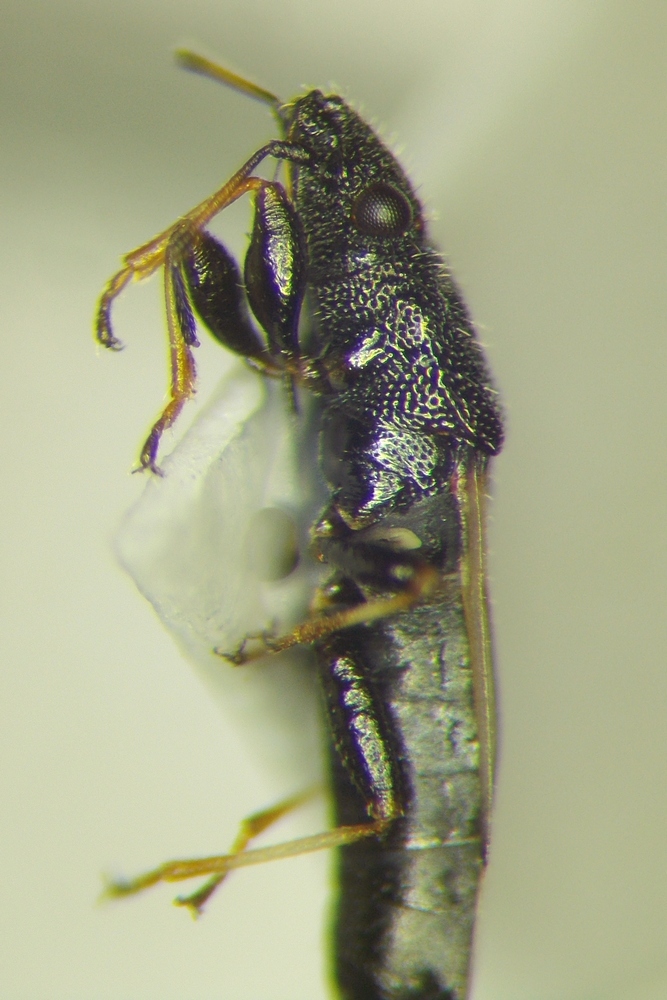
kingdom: Animalia
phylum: Arthropoda
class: Insecta
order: Hemiptera
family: Oxycarenidae
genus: Metopoplax
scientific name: Metopoplax origani
